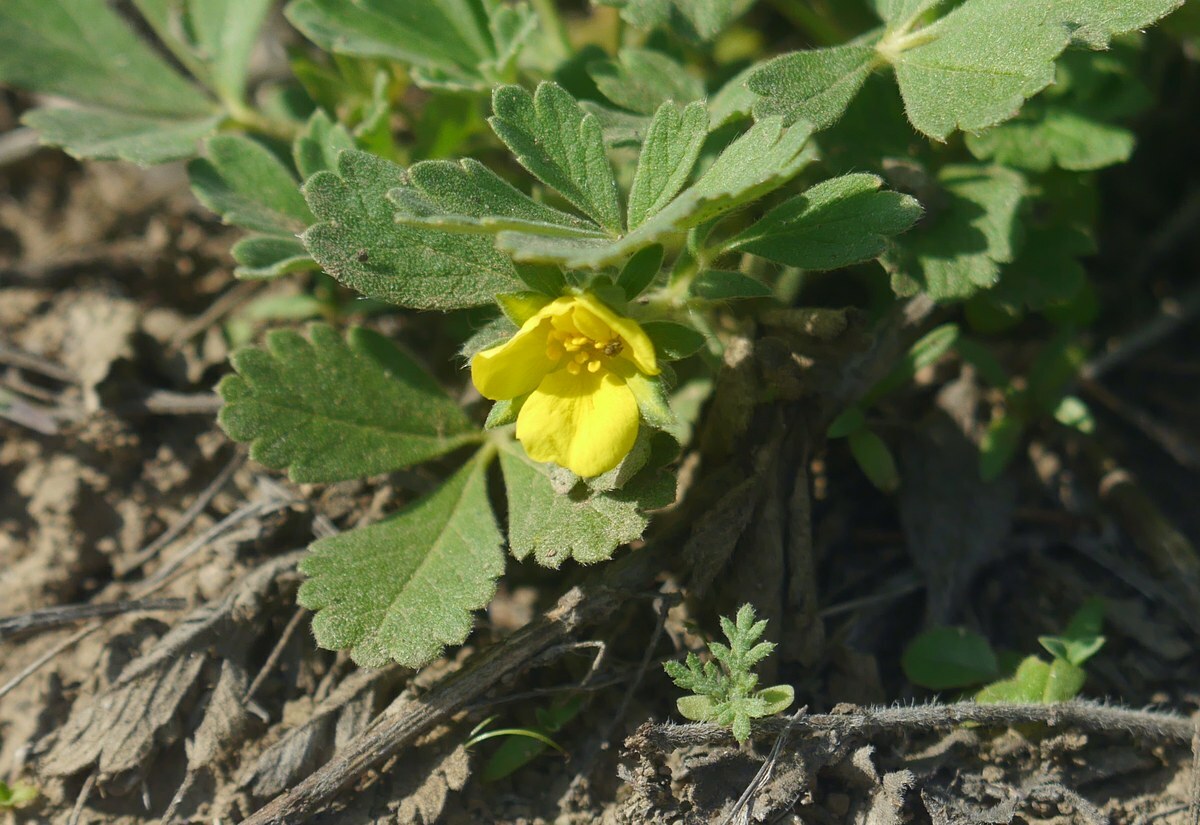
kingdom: Plantae
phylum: Tracheophyta
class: Magnoliopsida
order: Rosales
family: Rosaceae
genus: Potentilla
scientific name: Potentilla incana
